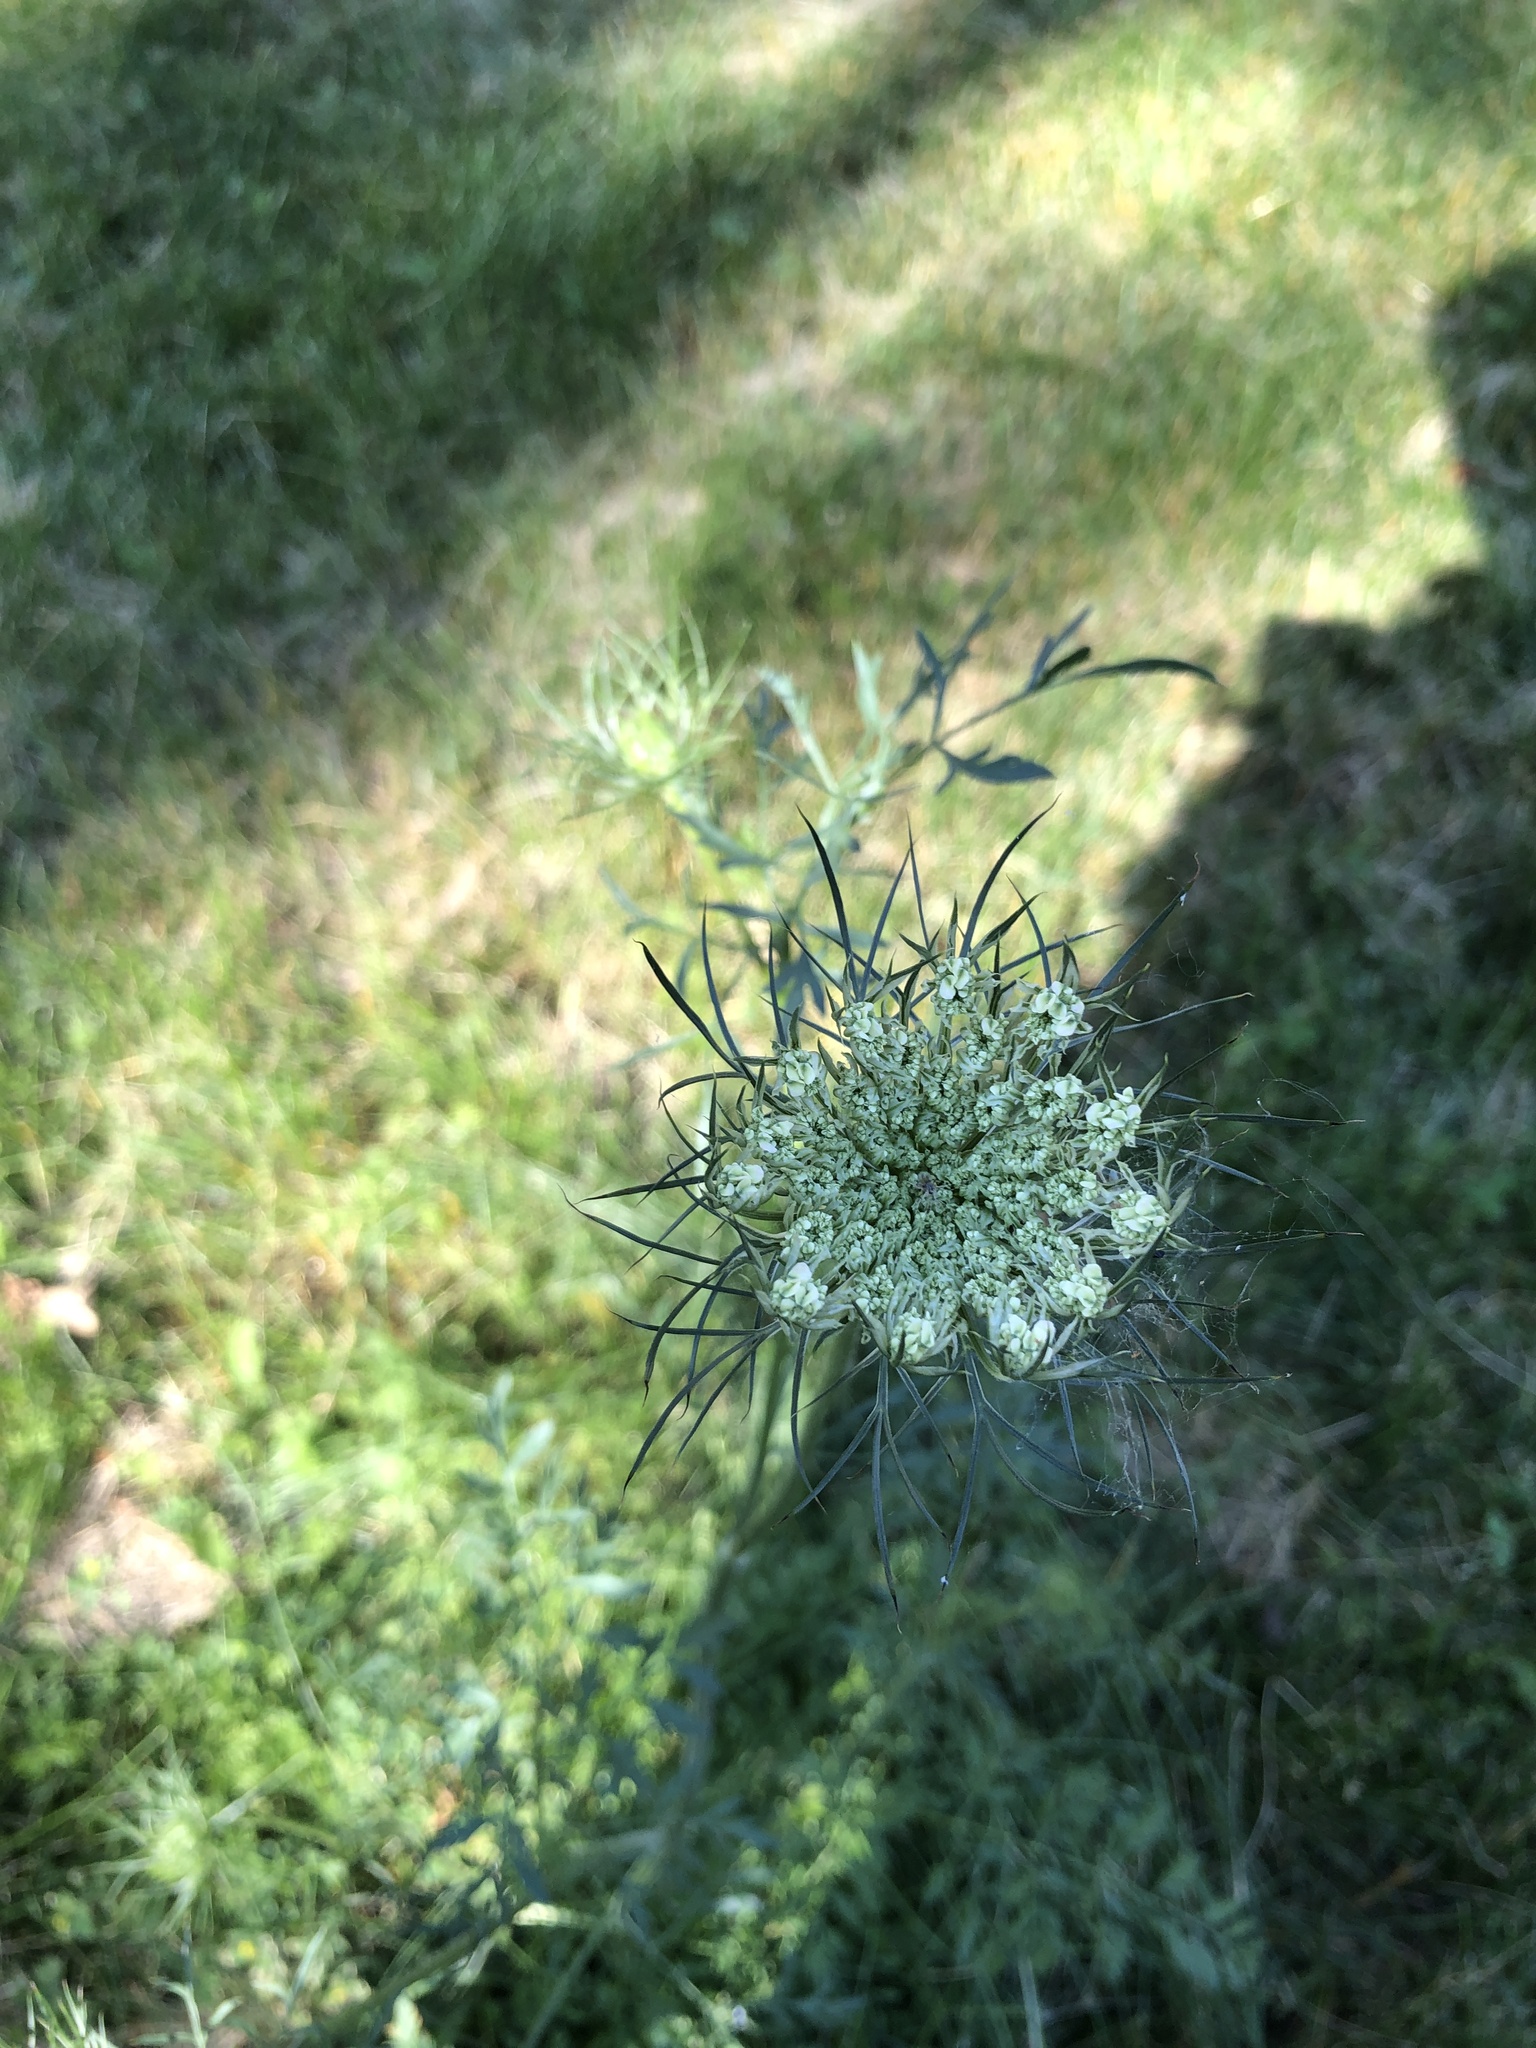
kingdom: Plantae
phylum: Tracheophyta
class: Magnoliopsida
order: Apiales
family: Apiaceae
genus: Daucus
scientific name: Daucus carota
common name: Wild carrot
